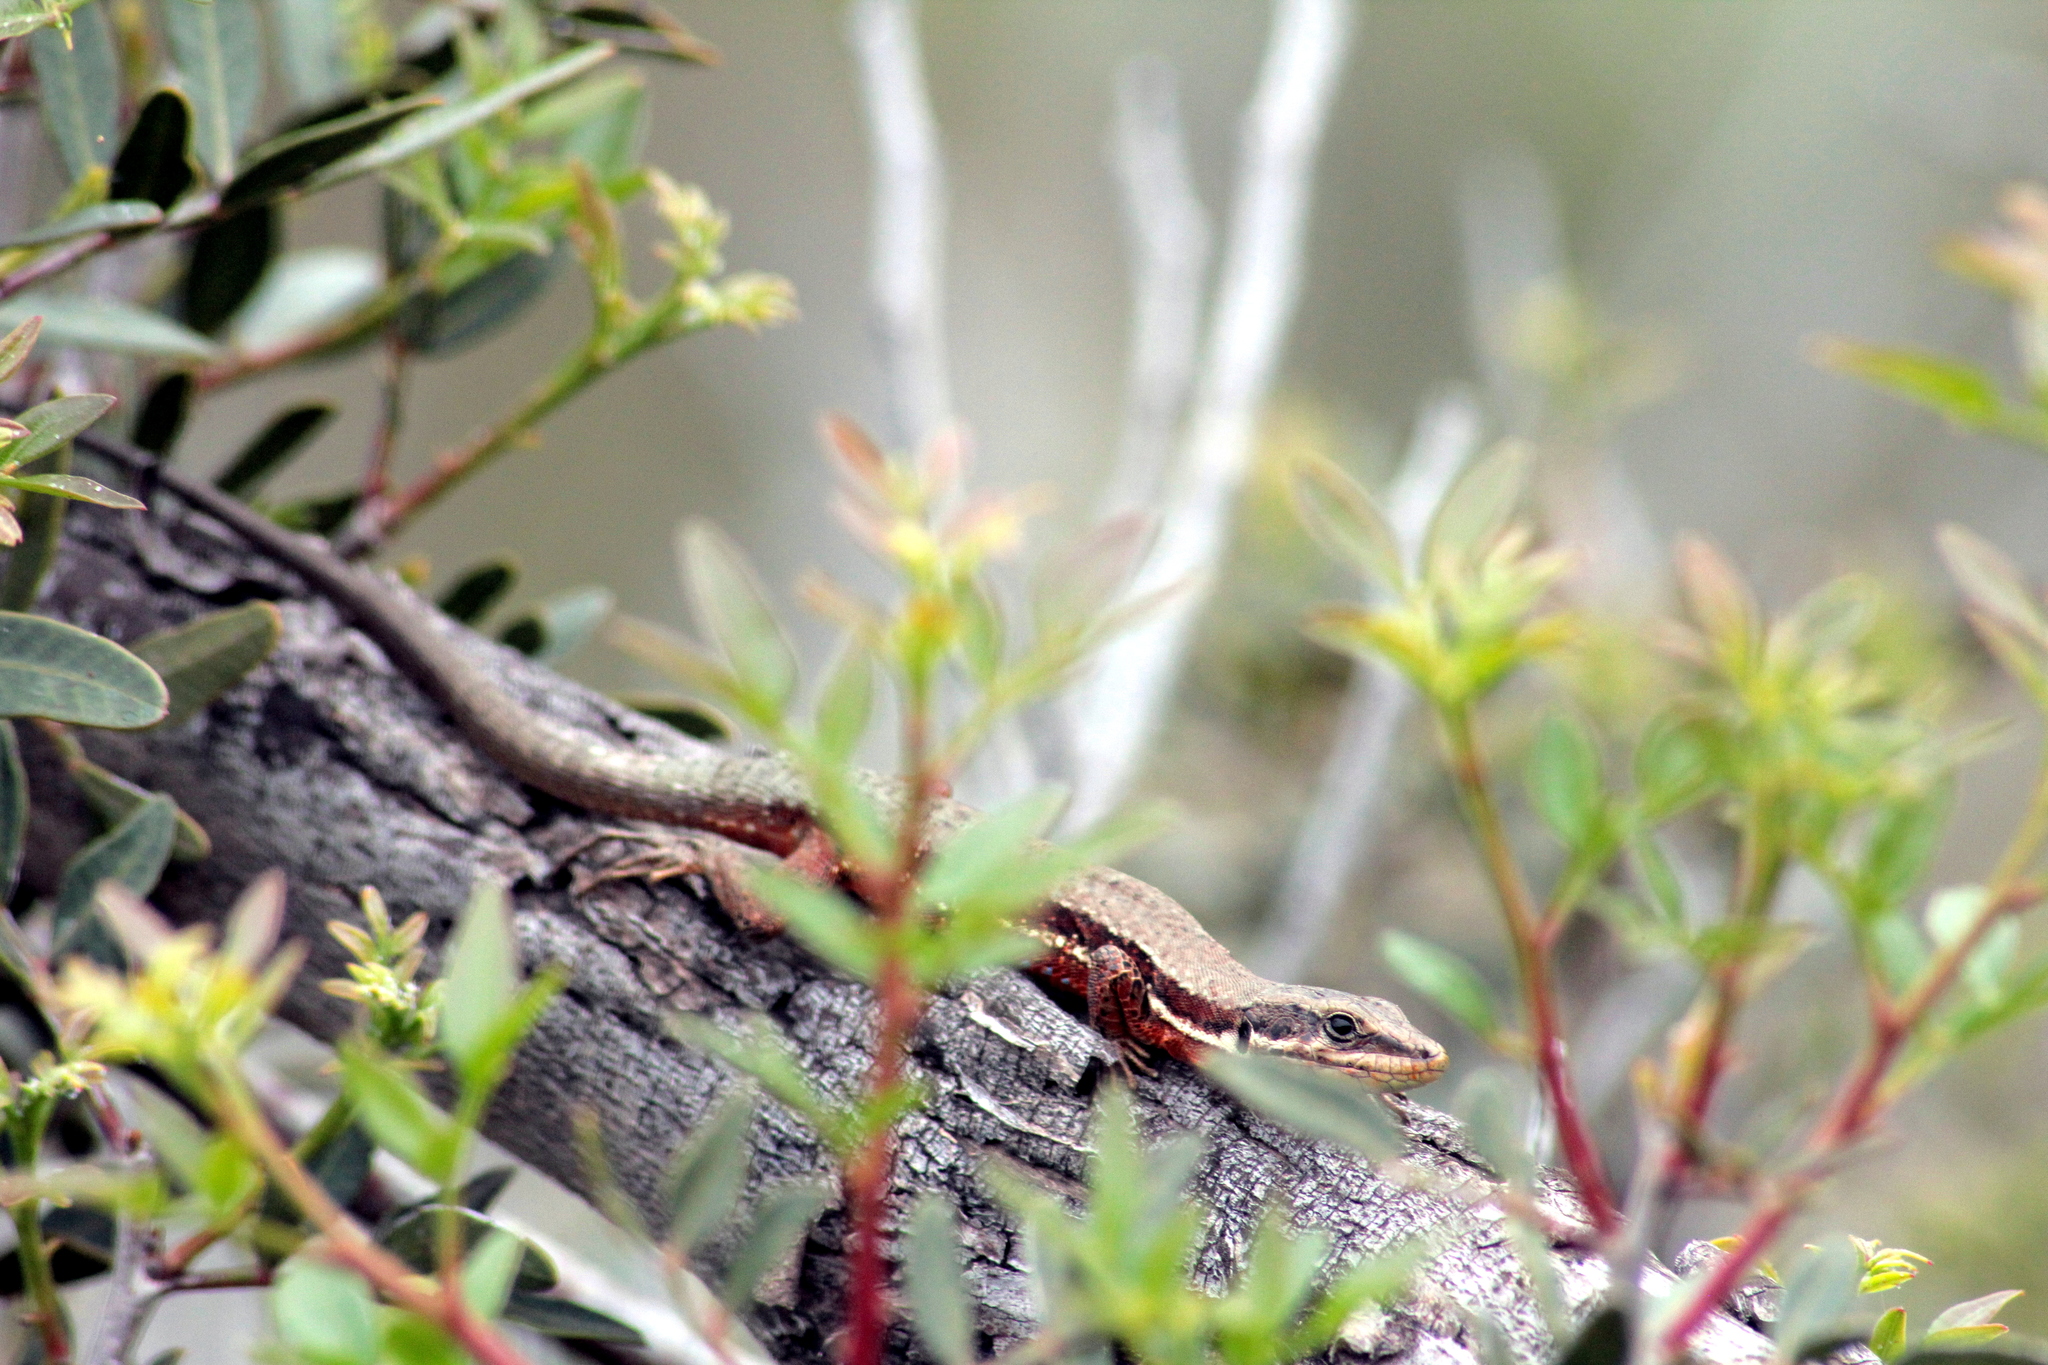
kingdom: Animalia
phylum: Chordata
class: Squamata
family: Lacertidae
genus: Phoenicolacerta
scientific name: Phoenicolacerta troodica
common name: Troodos wall lizard
